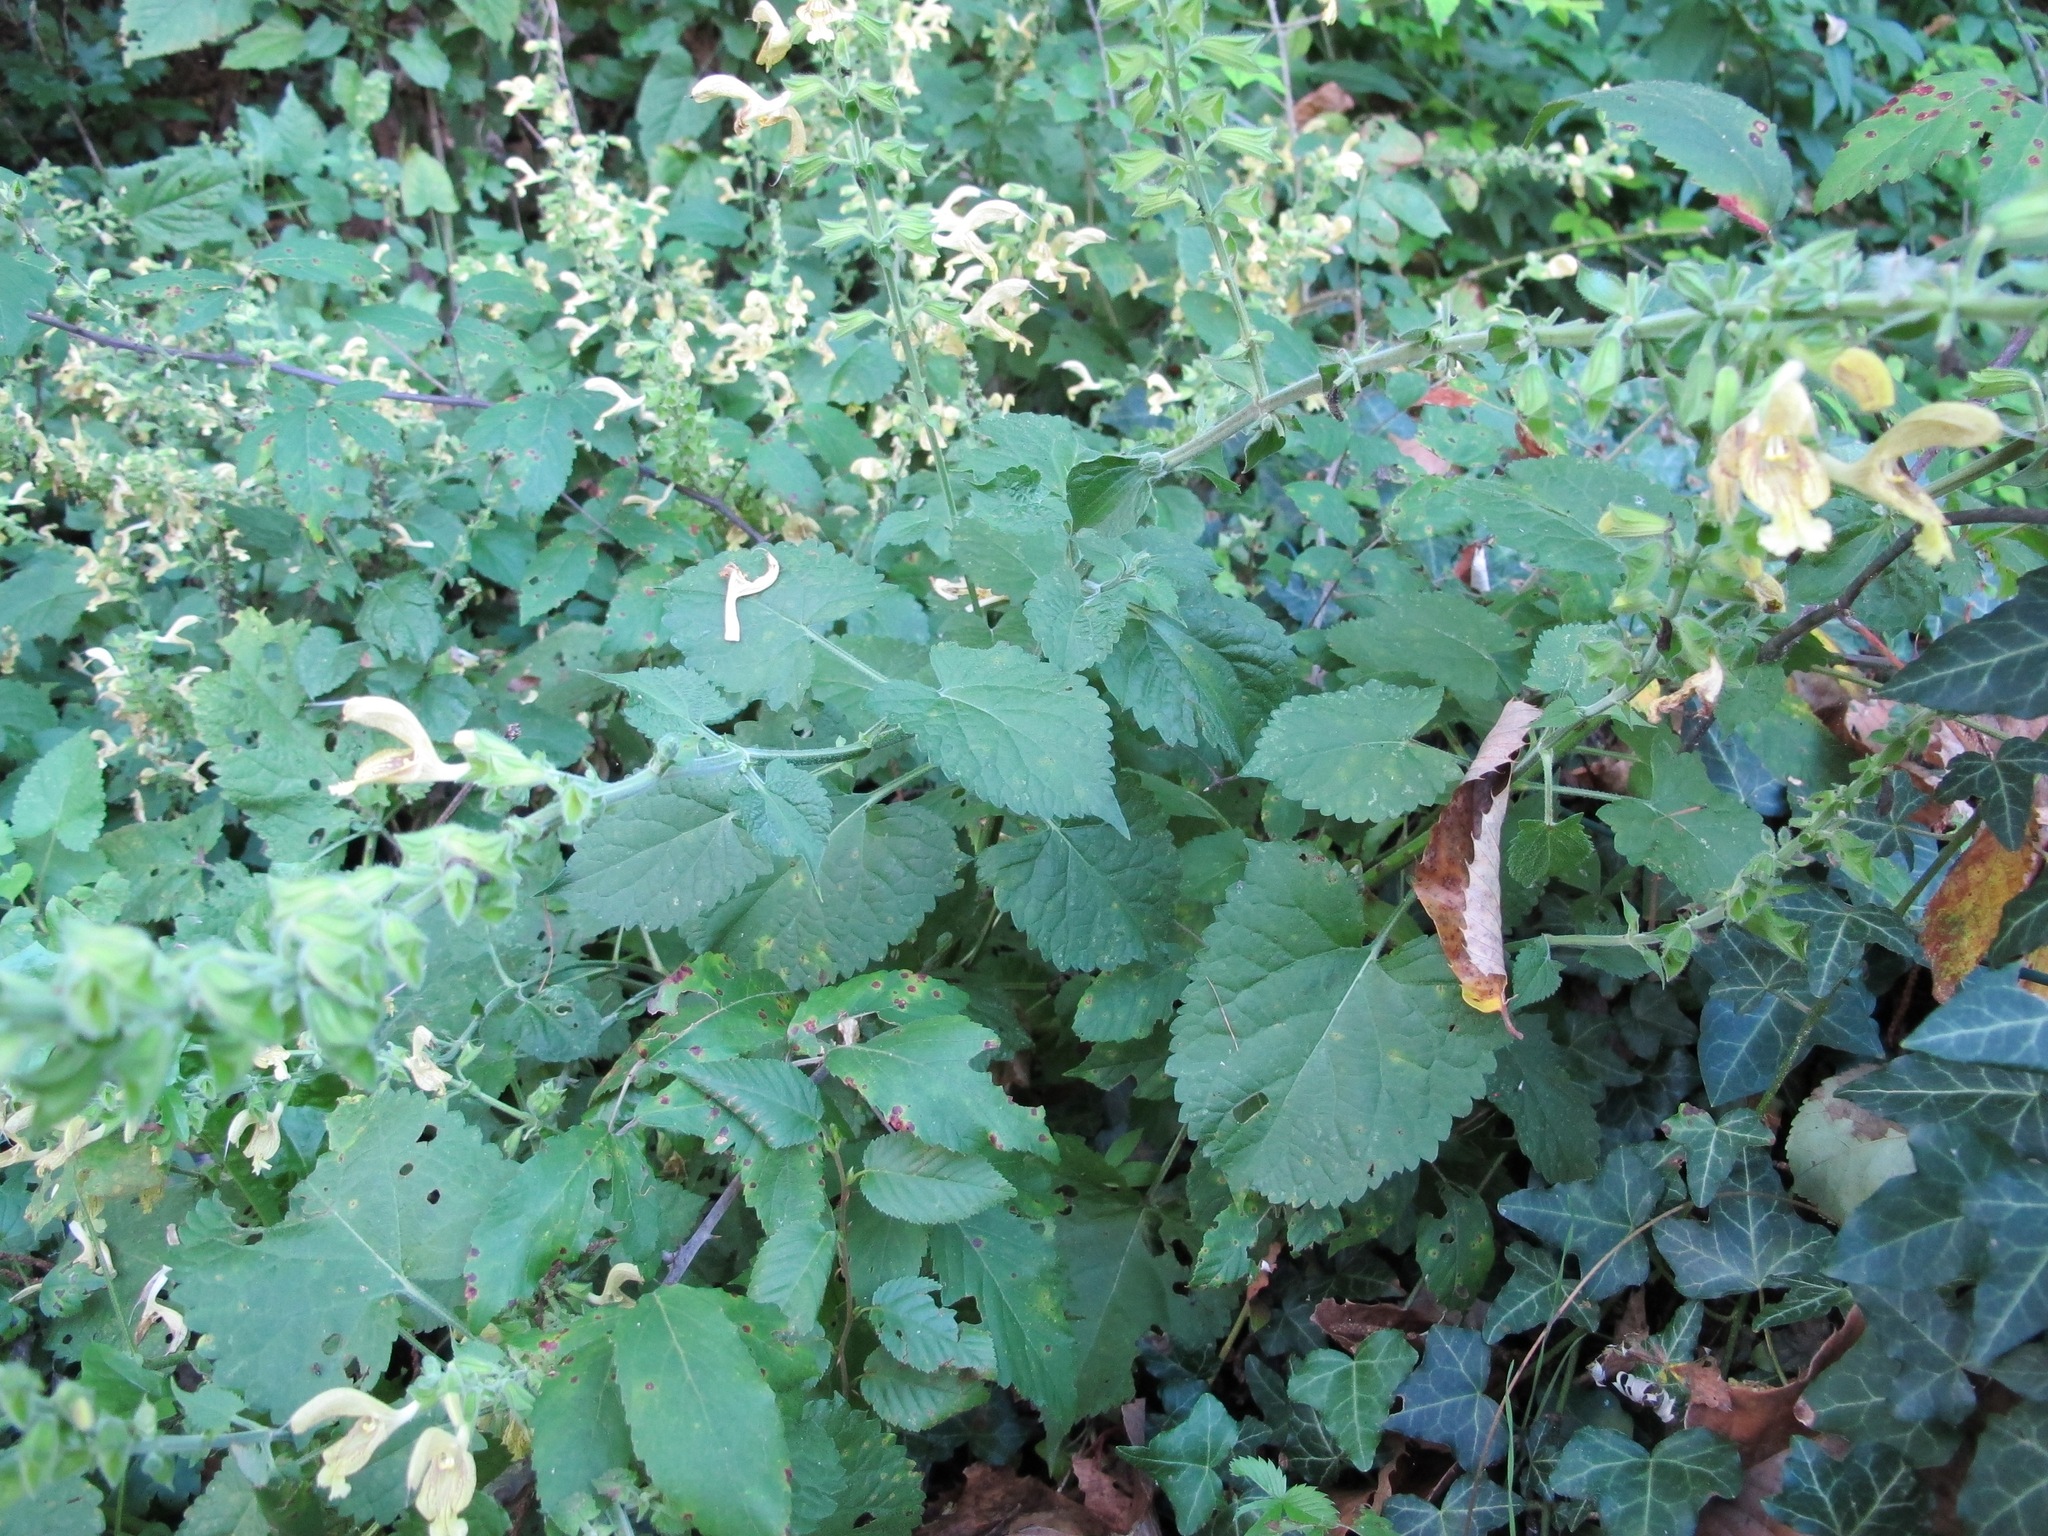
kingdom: Plantae
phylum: Tracheophyta
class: Magnoliopsida
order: Lamiales
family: Lamiaceae
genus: Salvia
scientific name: Salvia glutinosa
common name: Sticky clary
